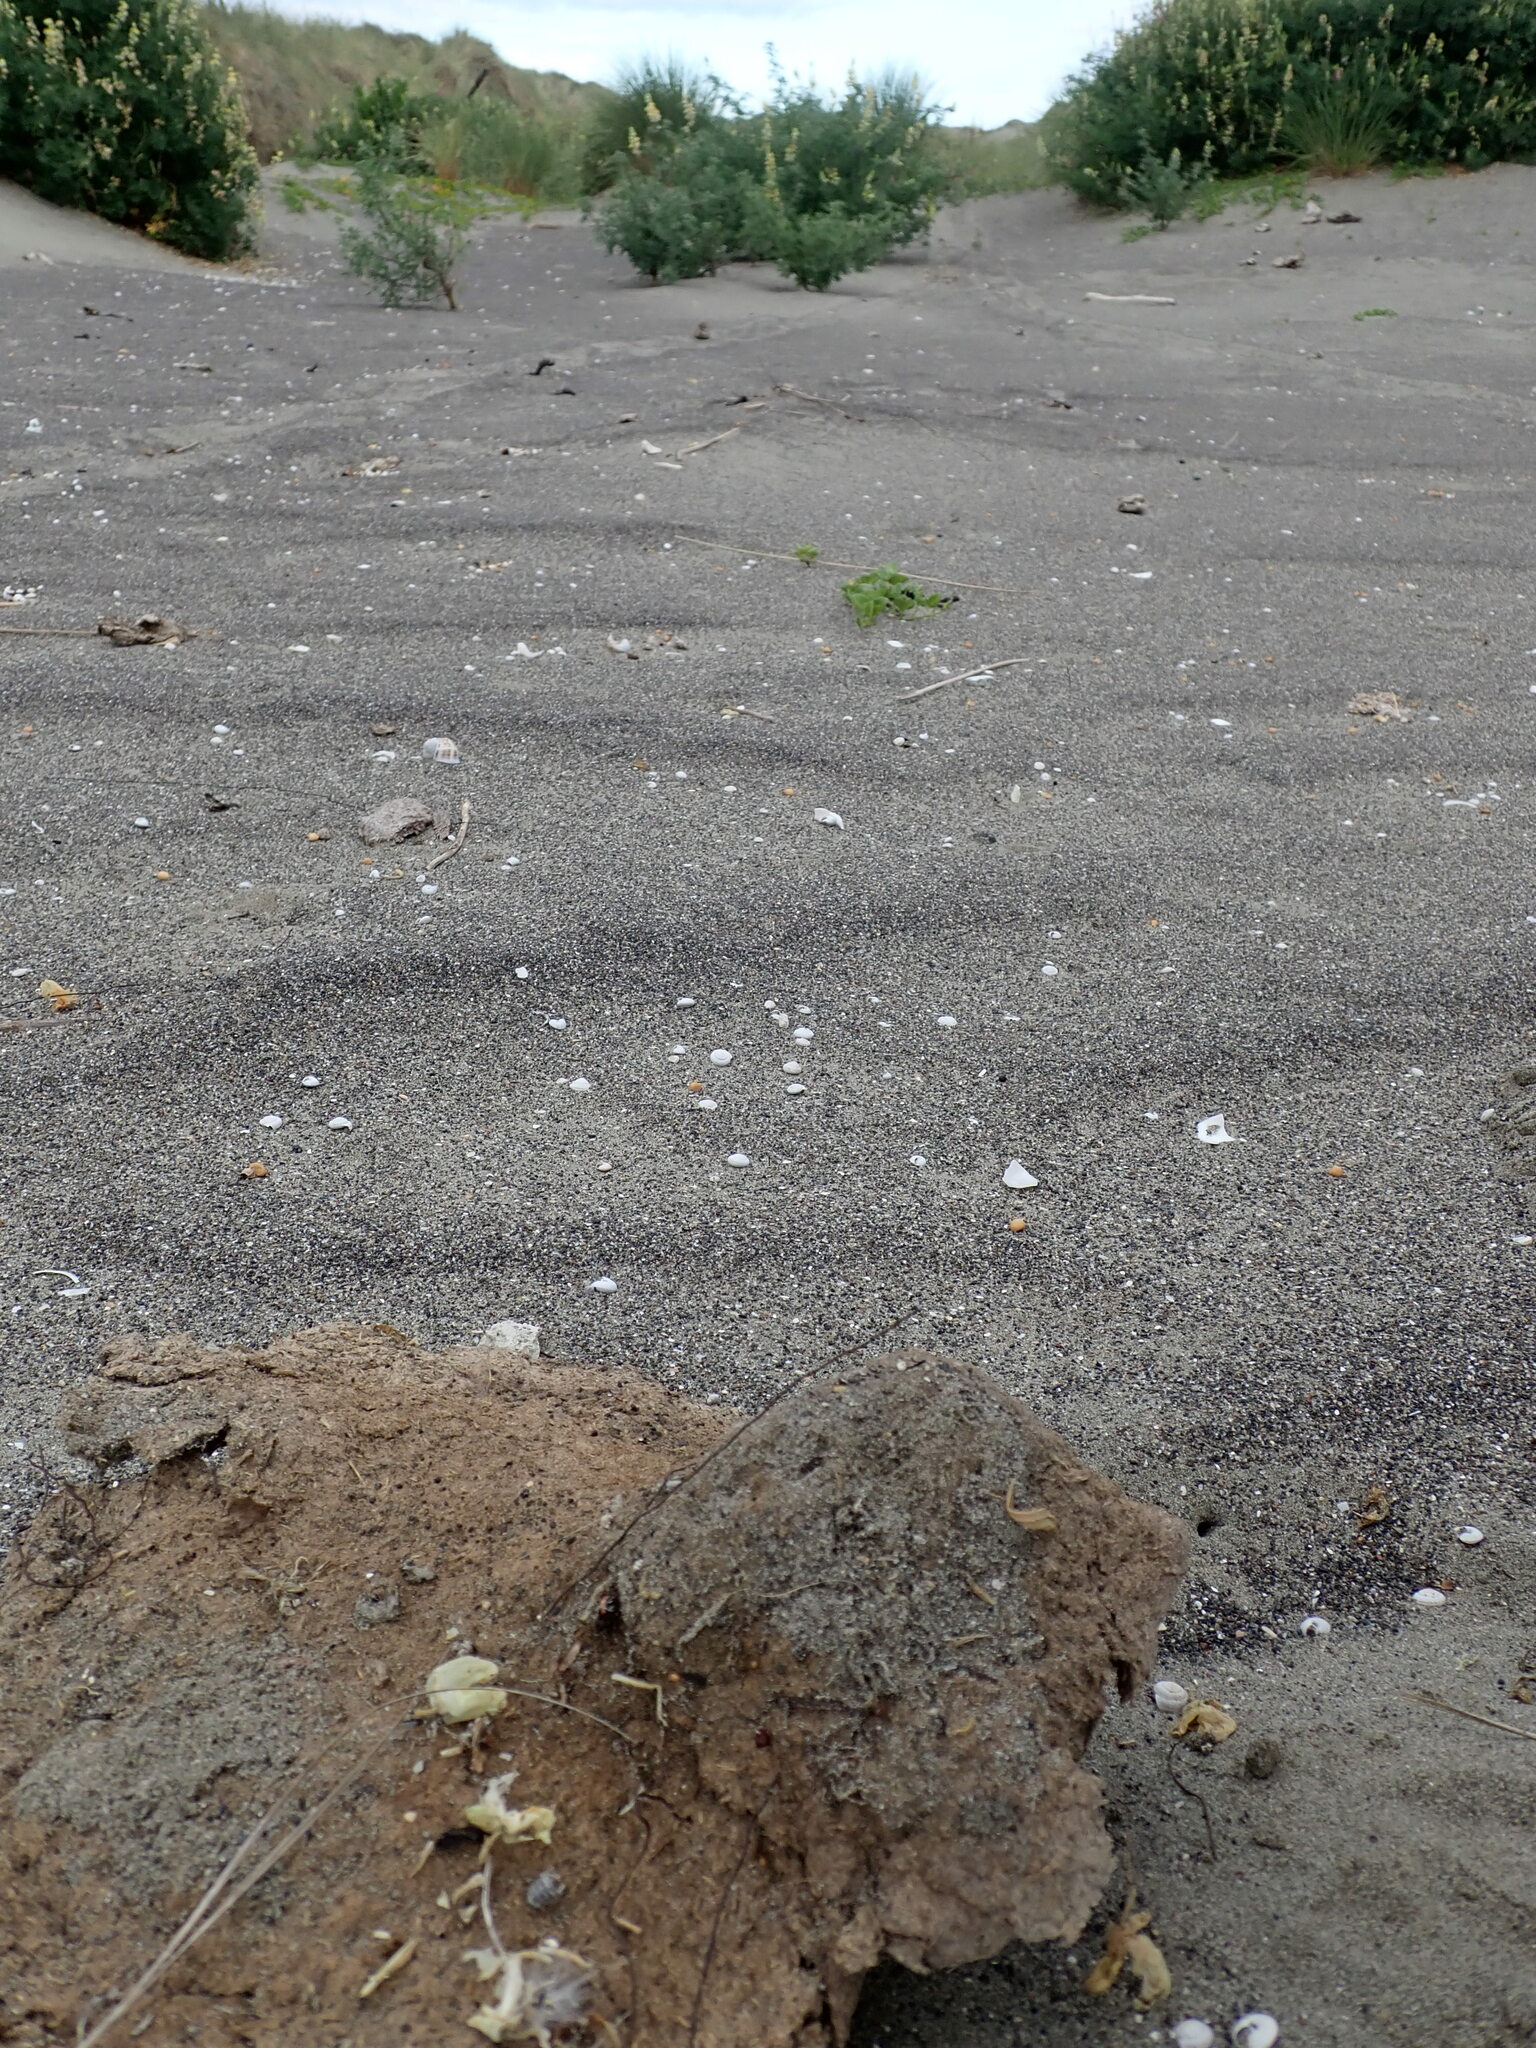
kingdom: Animalia
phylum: Arthropoda
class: Arachnida
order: Araneae
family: Theridiidae
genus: Latrodectus
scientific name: Latrodectus katipo
